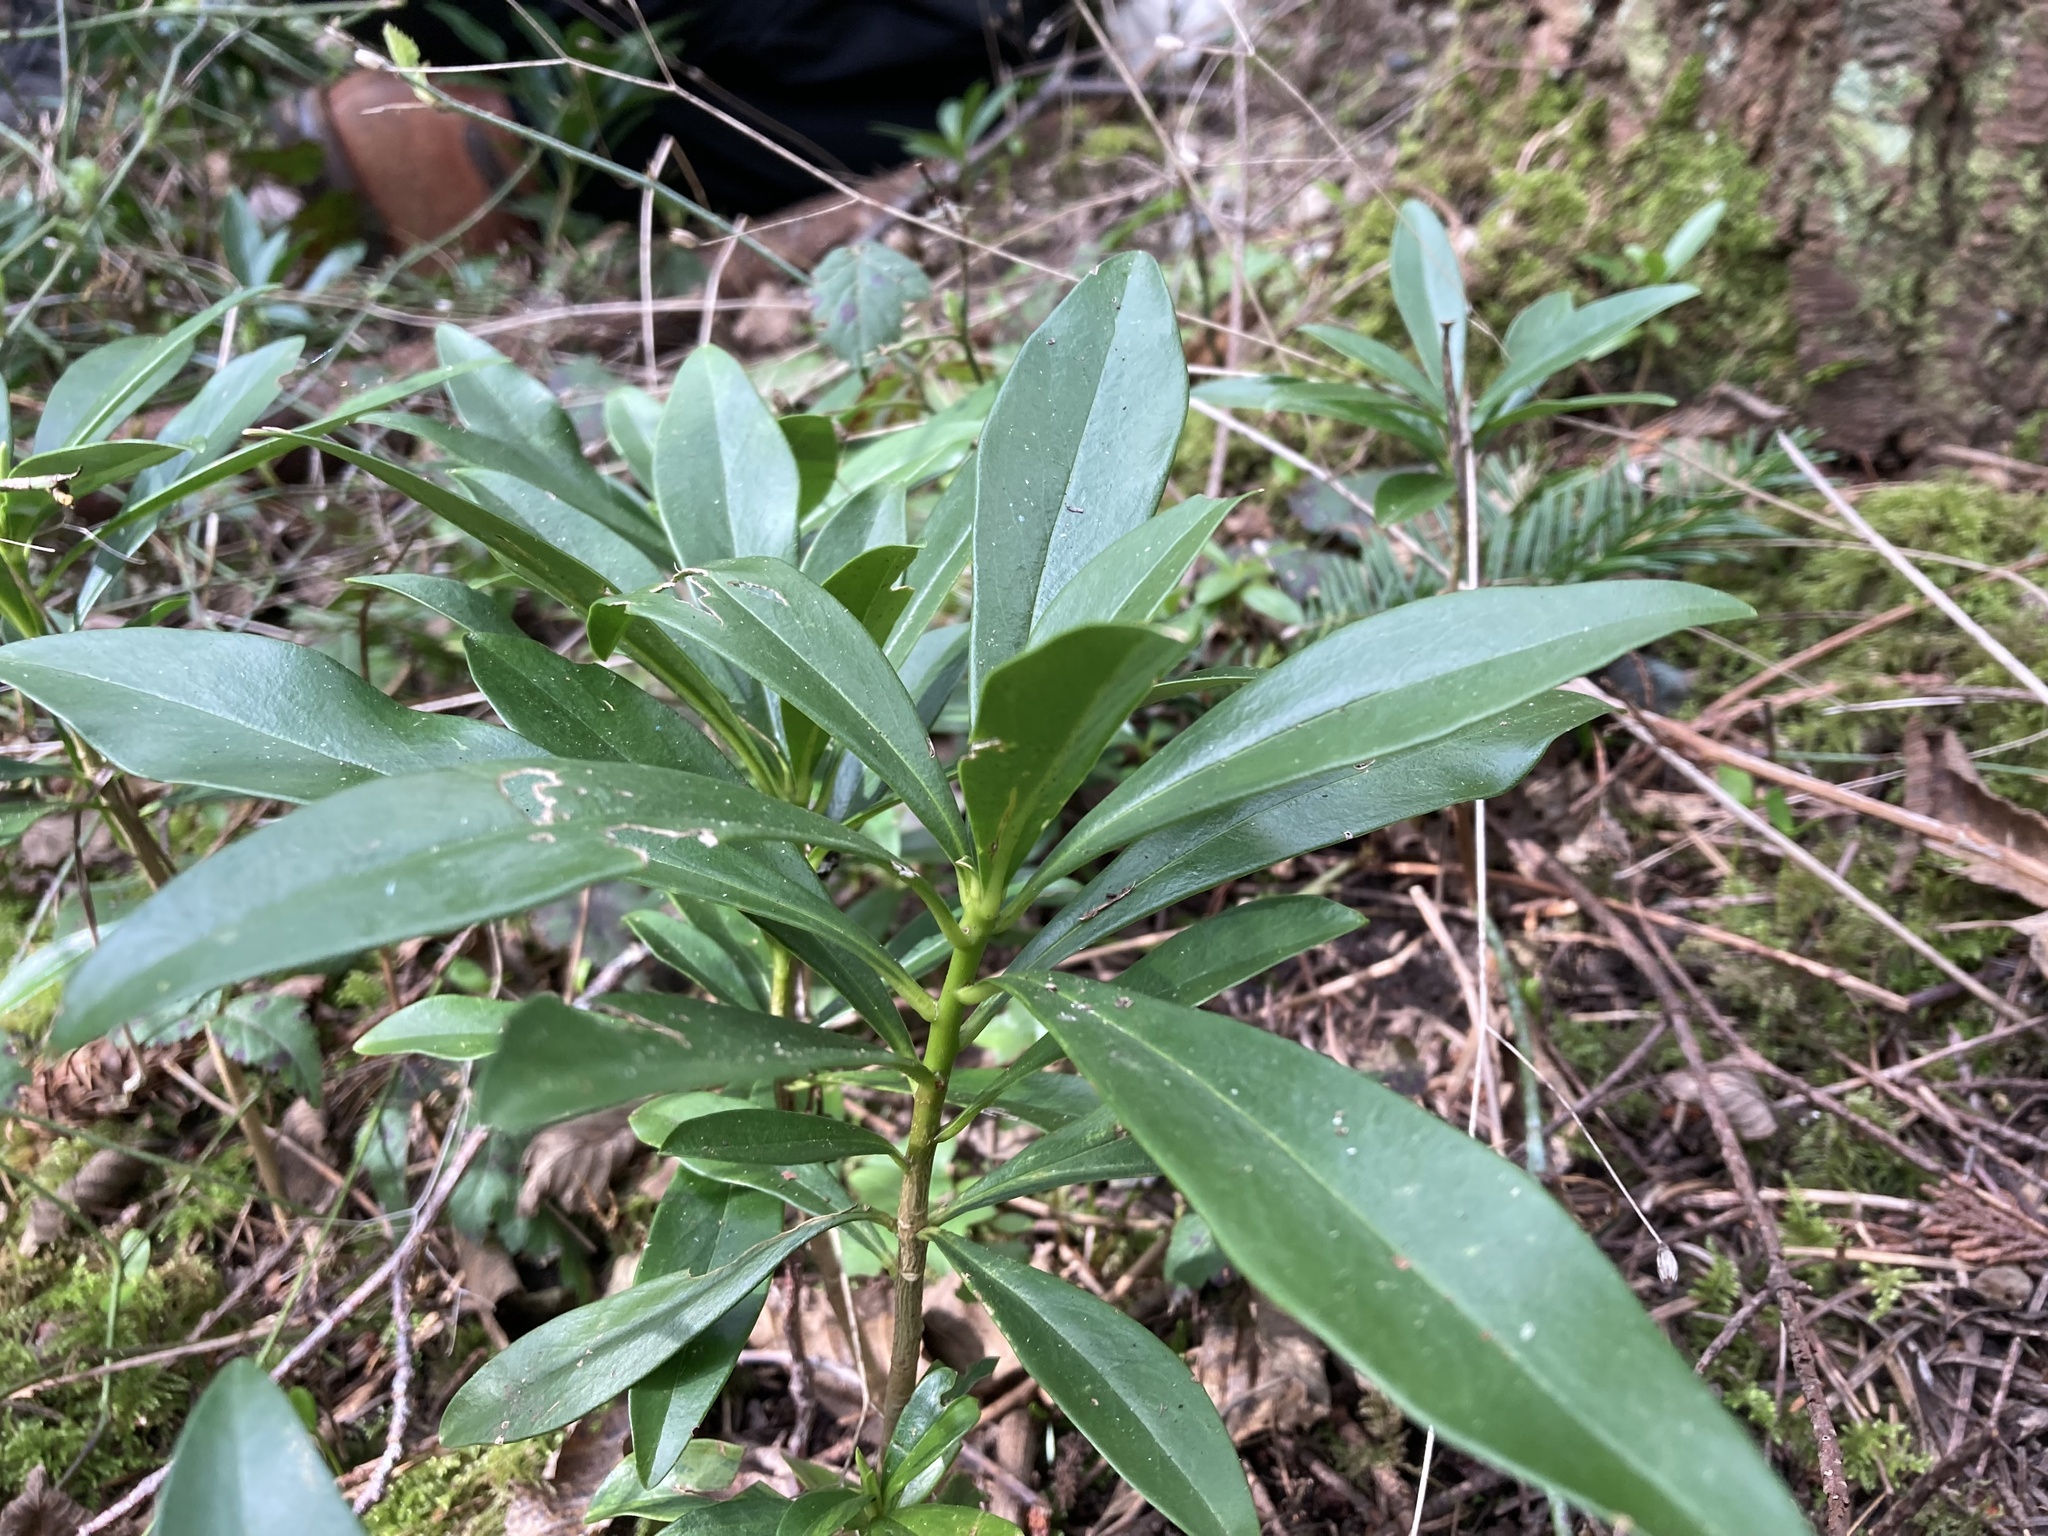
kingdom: Plantae
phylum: Tracheophyta
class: Magnoliopsida
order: Malvales
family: Thymelaeaceae
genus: Daphne
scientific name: Daphne laureola
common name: Spurge-laurel
